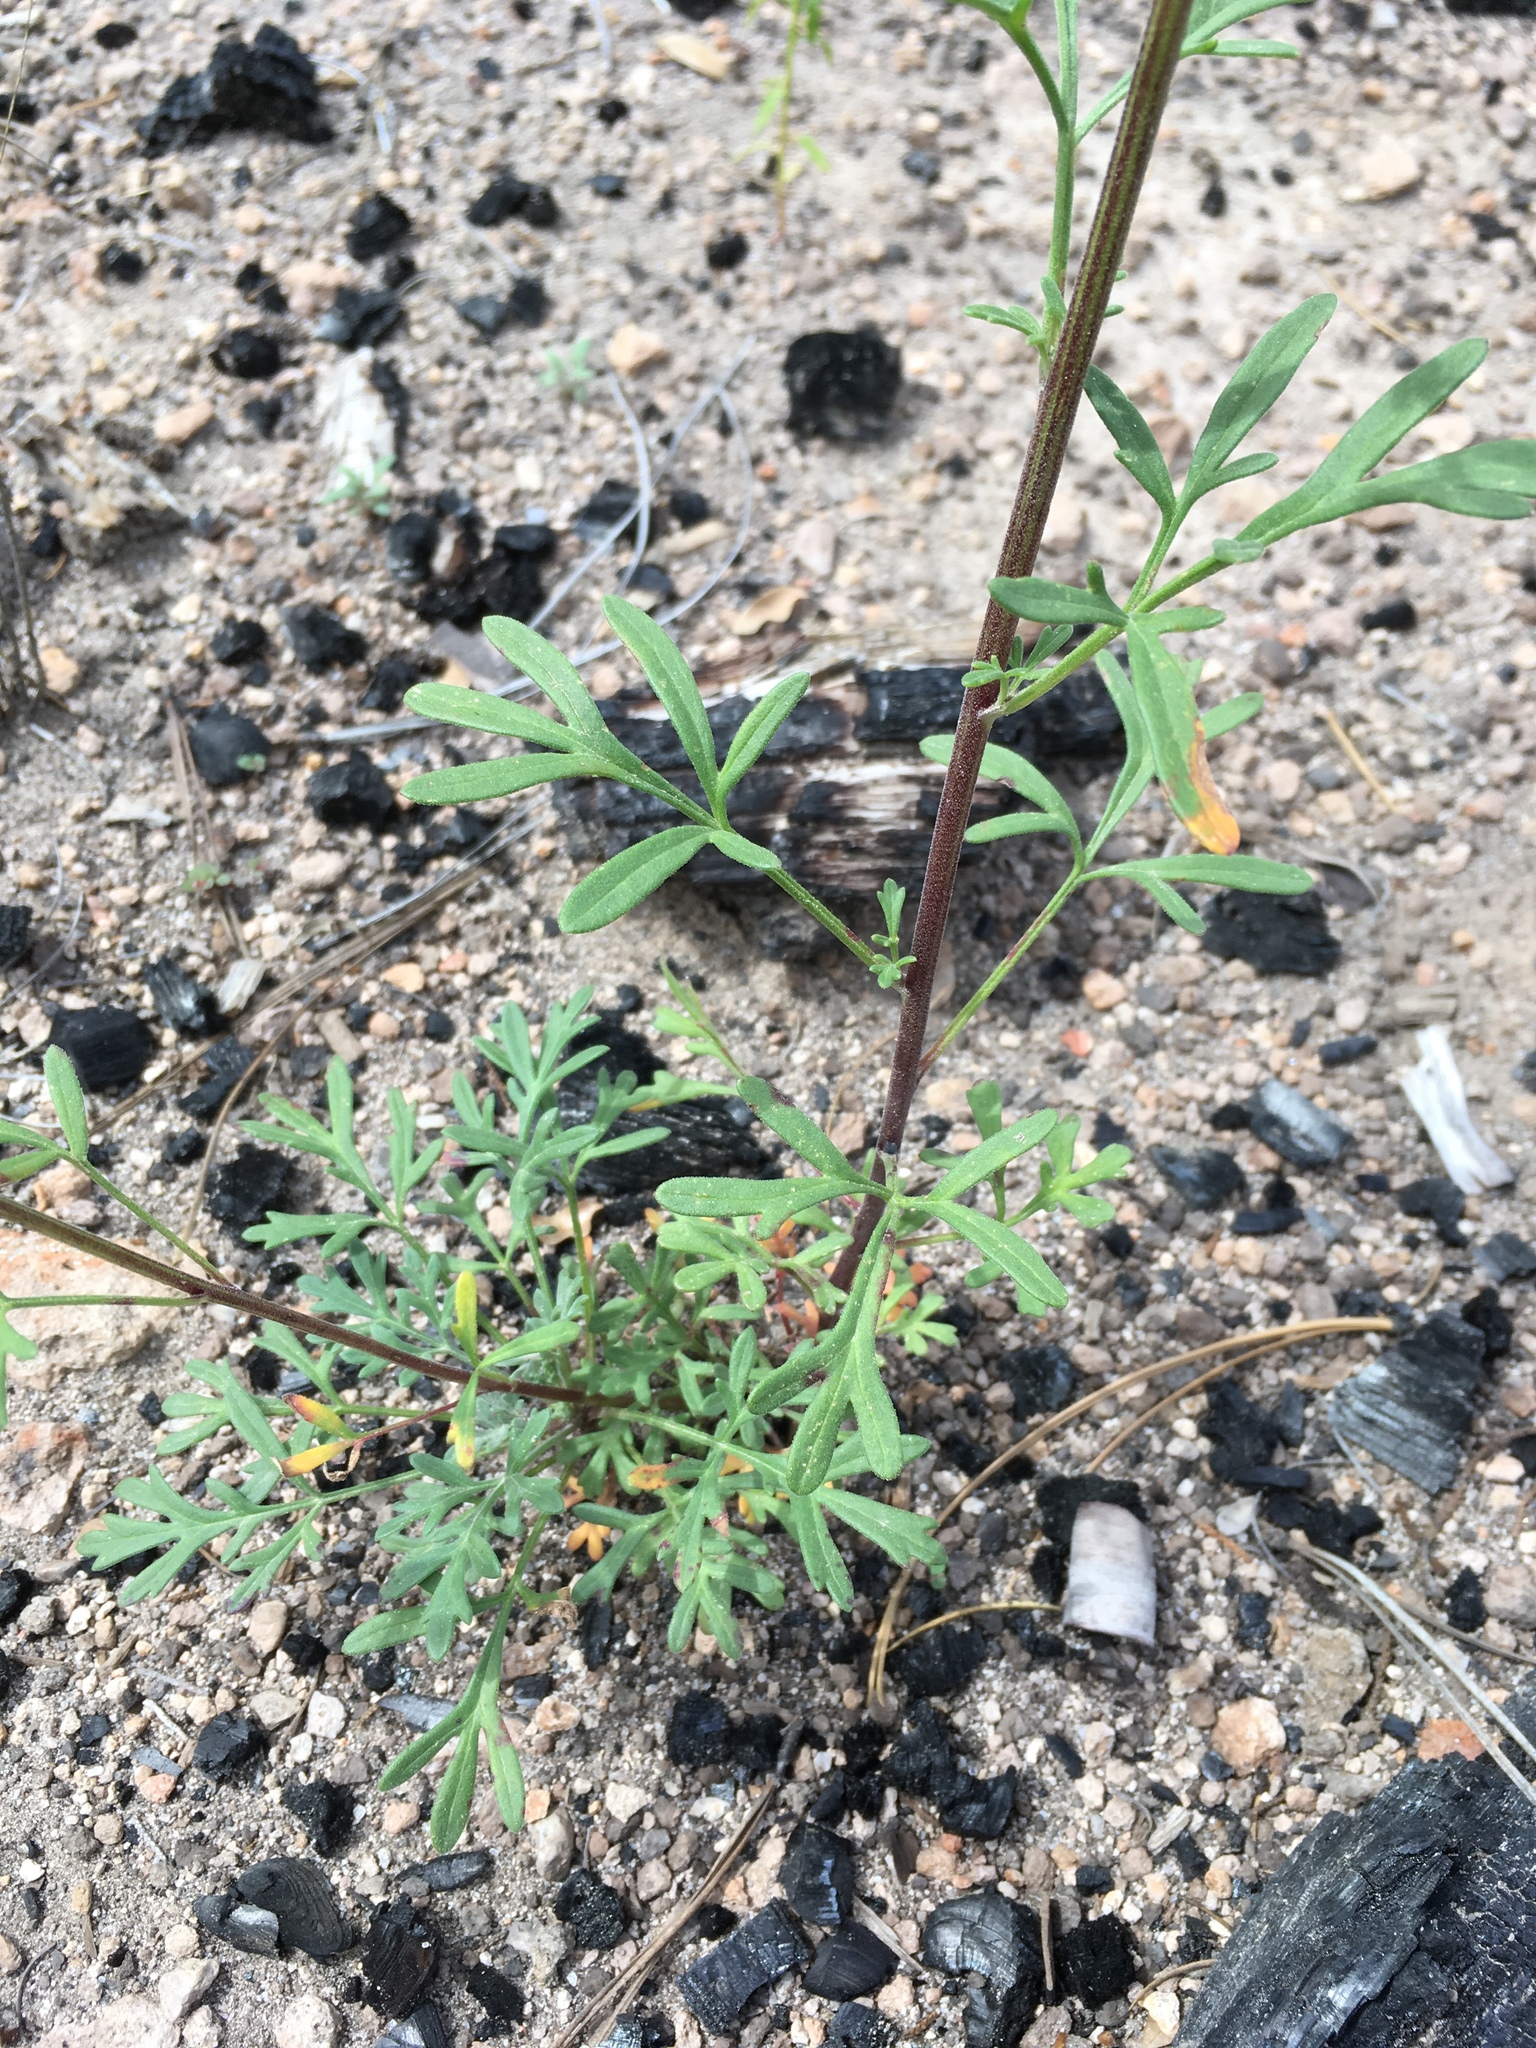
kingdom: Plantae
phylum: Tracheophyta
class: Magnoliopsida
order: Asterales
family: Asteraceae
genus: Hymenothrix
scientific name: Hymenothrix dissecta
